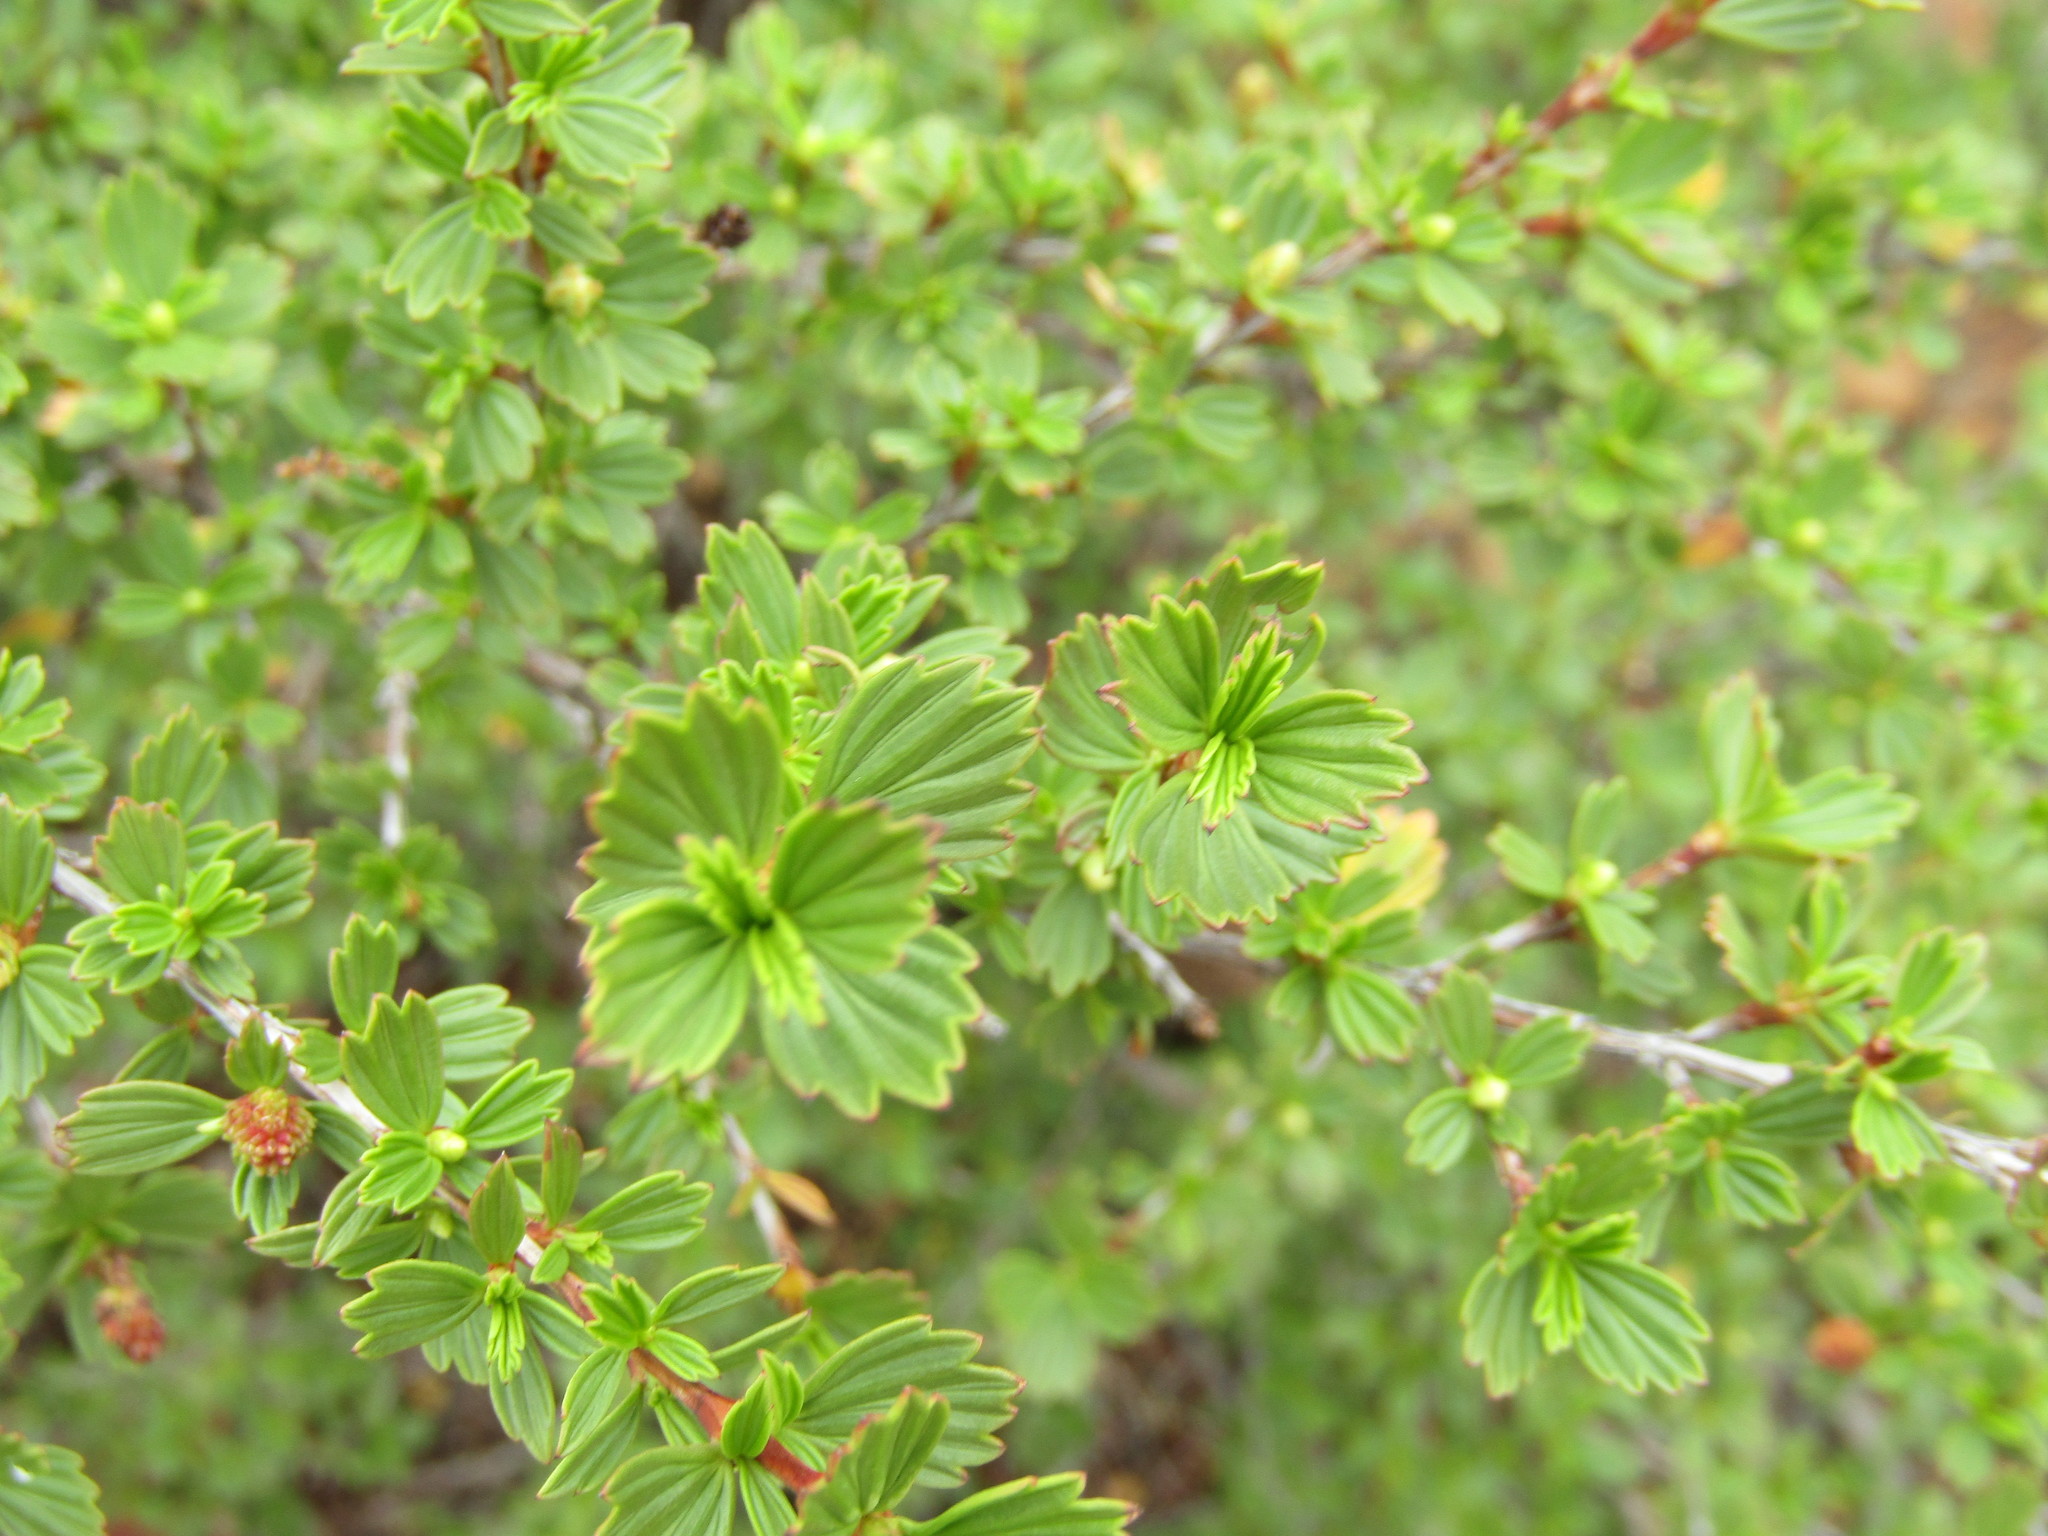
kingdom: Plantae
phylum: Tracheophyta
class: Magnoliopsida
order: Gunnerales
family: Myrothamnaceae
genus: Myrothamnus
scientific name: Myrothamnus flabellifolius
